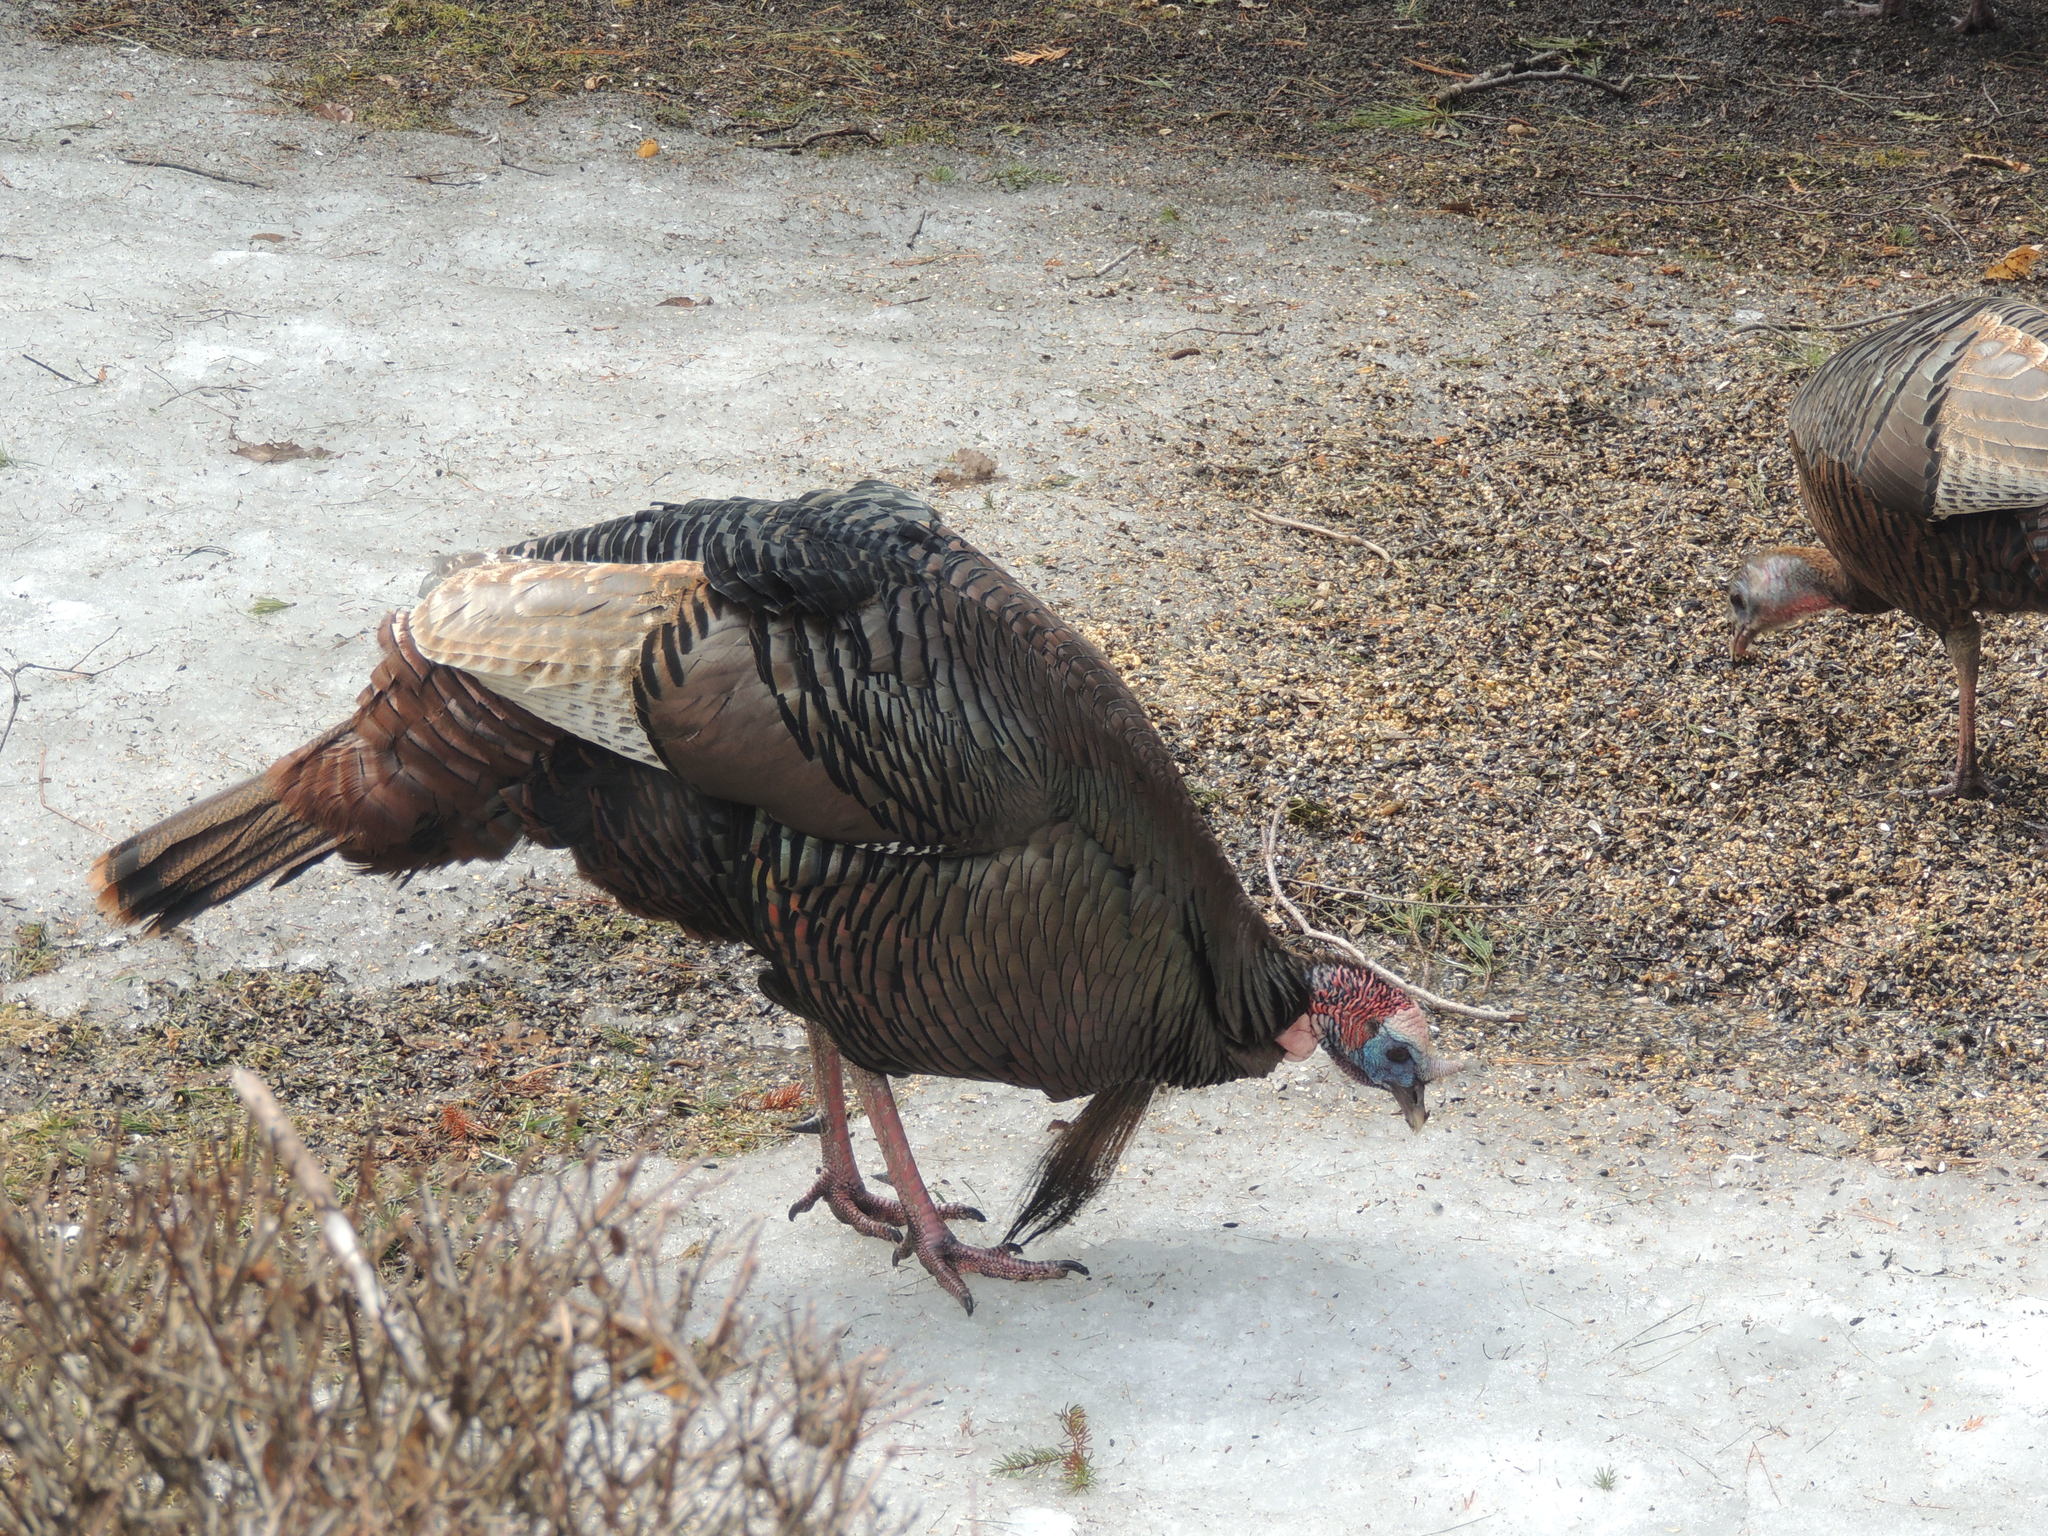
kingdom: Animalia
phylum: Chordata
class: Aves
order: Galliformes
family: Phasianidae
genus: Meleagris
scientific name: Meleagris gallopavo
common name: Wild turkey
